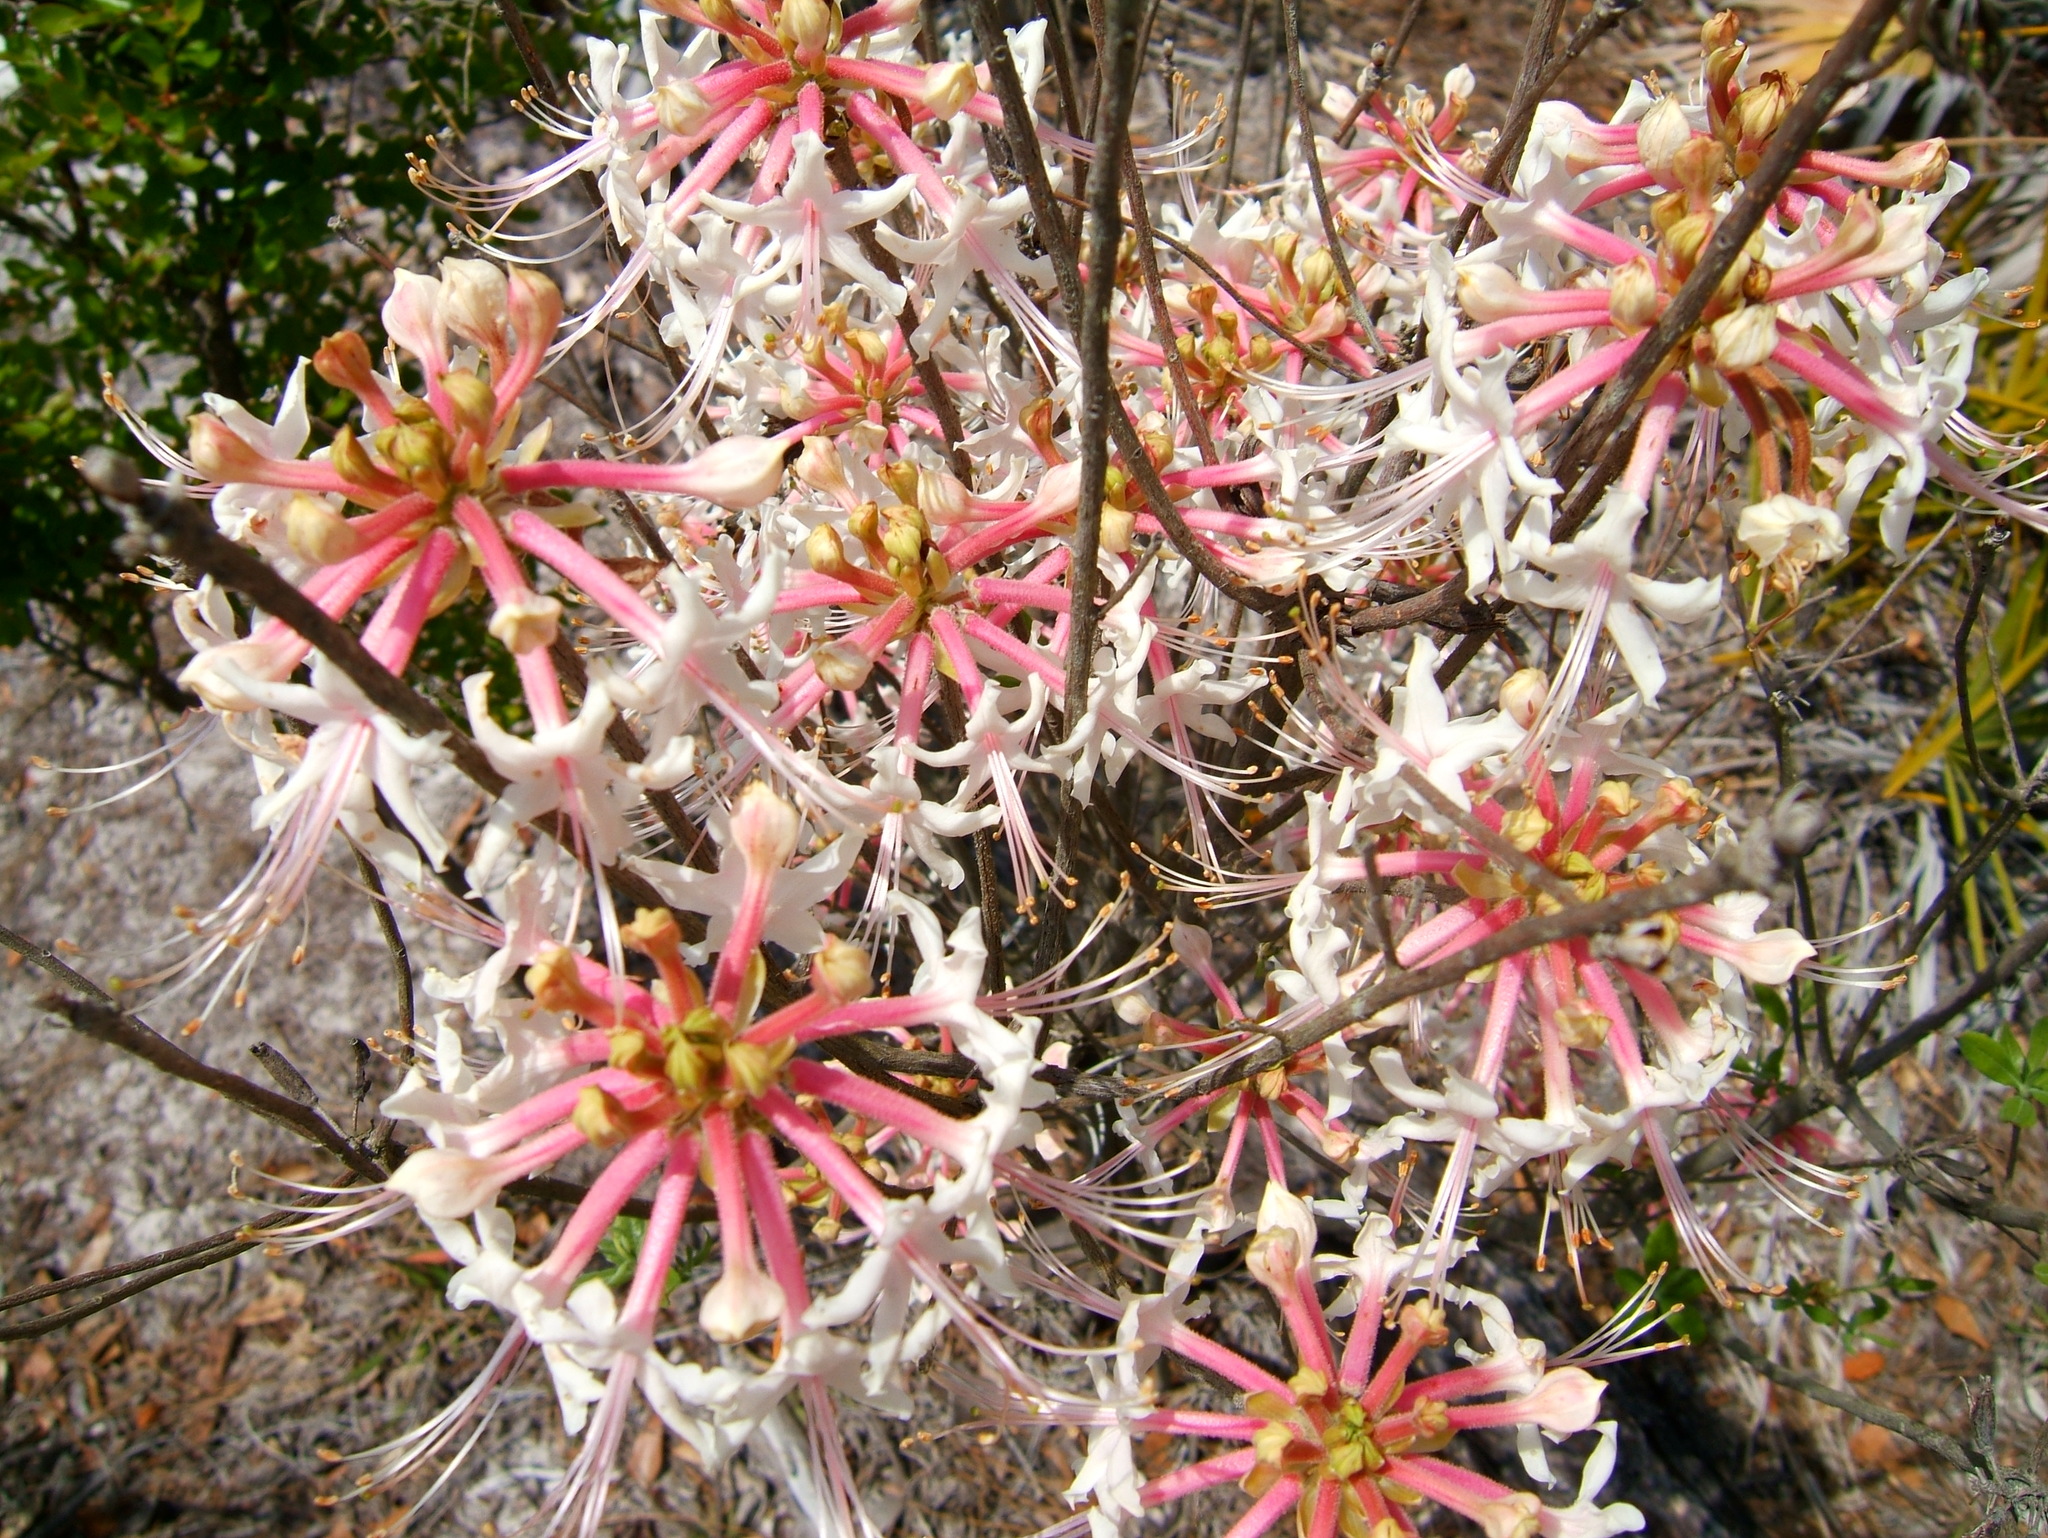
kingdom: Plantae
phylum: Tracheophyta
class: Magnoliopsida
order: Ericales
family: Ericaceae
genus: Rhododendron
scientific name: Rhododendron canescens
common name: Mountain azalea
